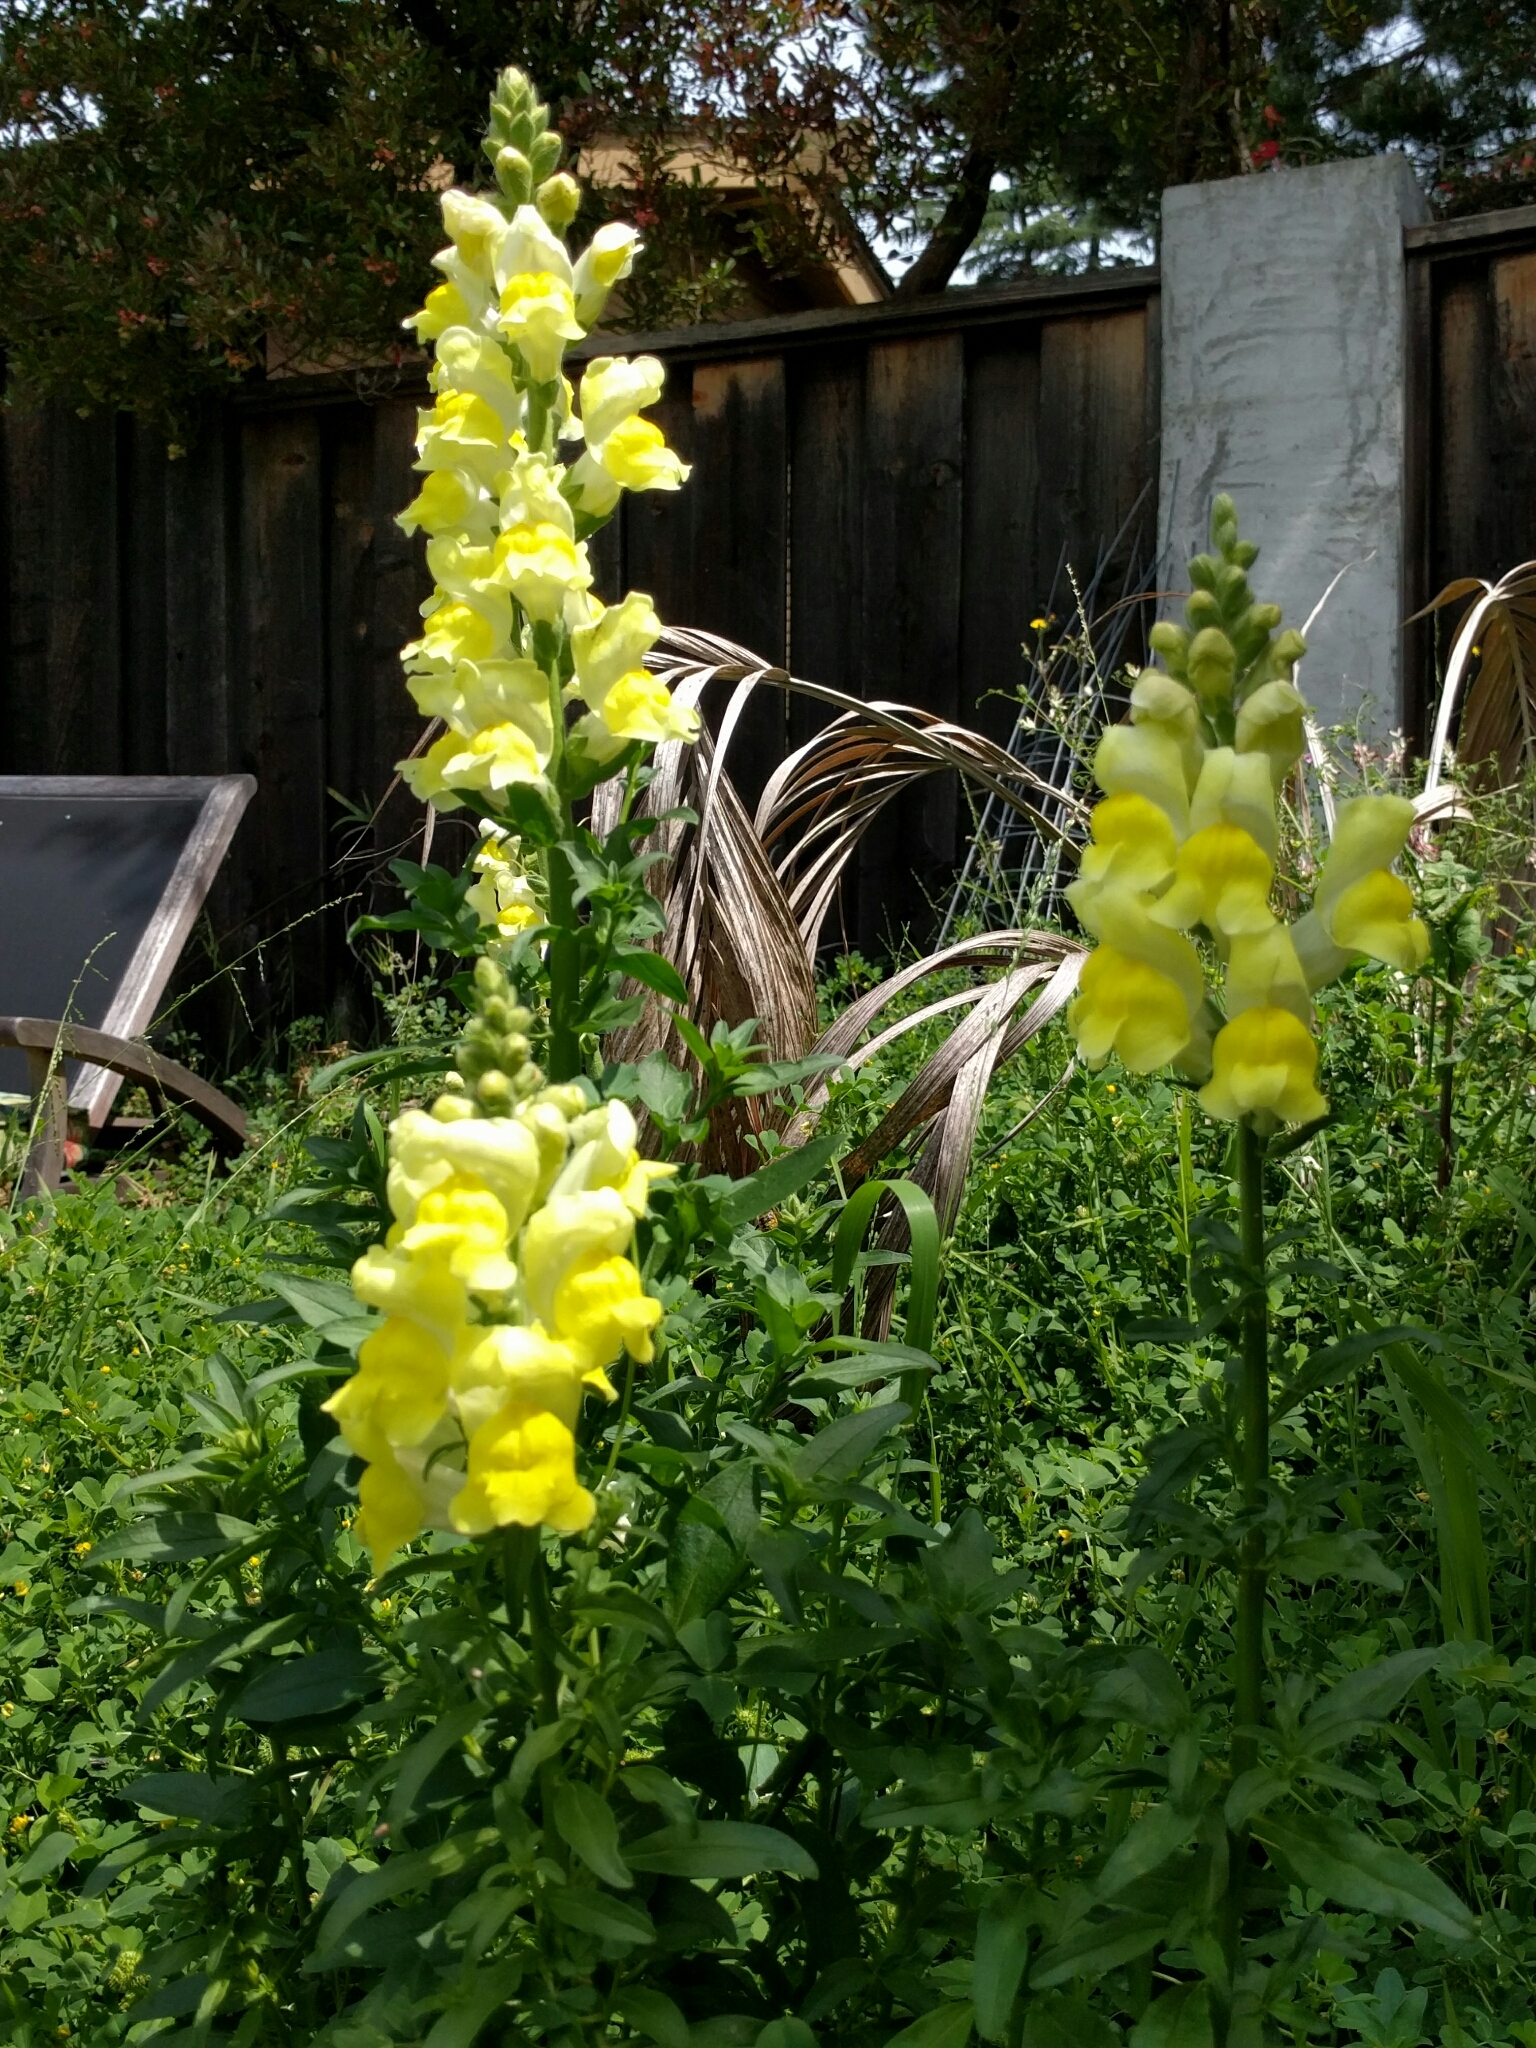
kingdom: Plantae
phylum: Tracheophyta
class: Magnoliopsida
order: Lamiales
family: Plantaginaceae
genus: Antirrhinum
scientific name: Antirrhinum majus
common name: Snapdragon
